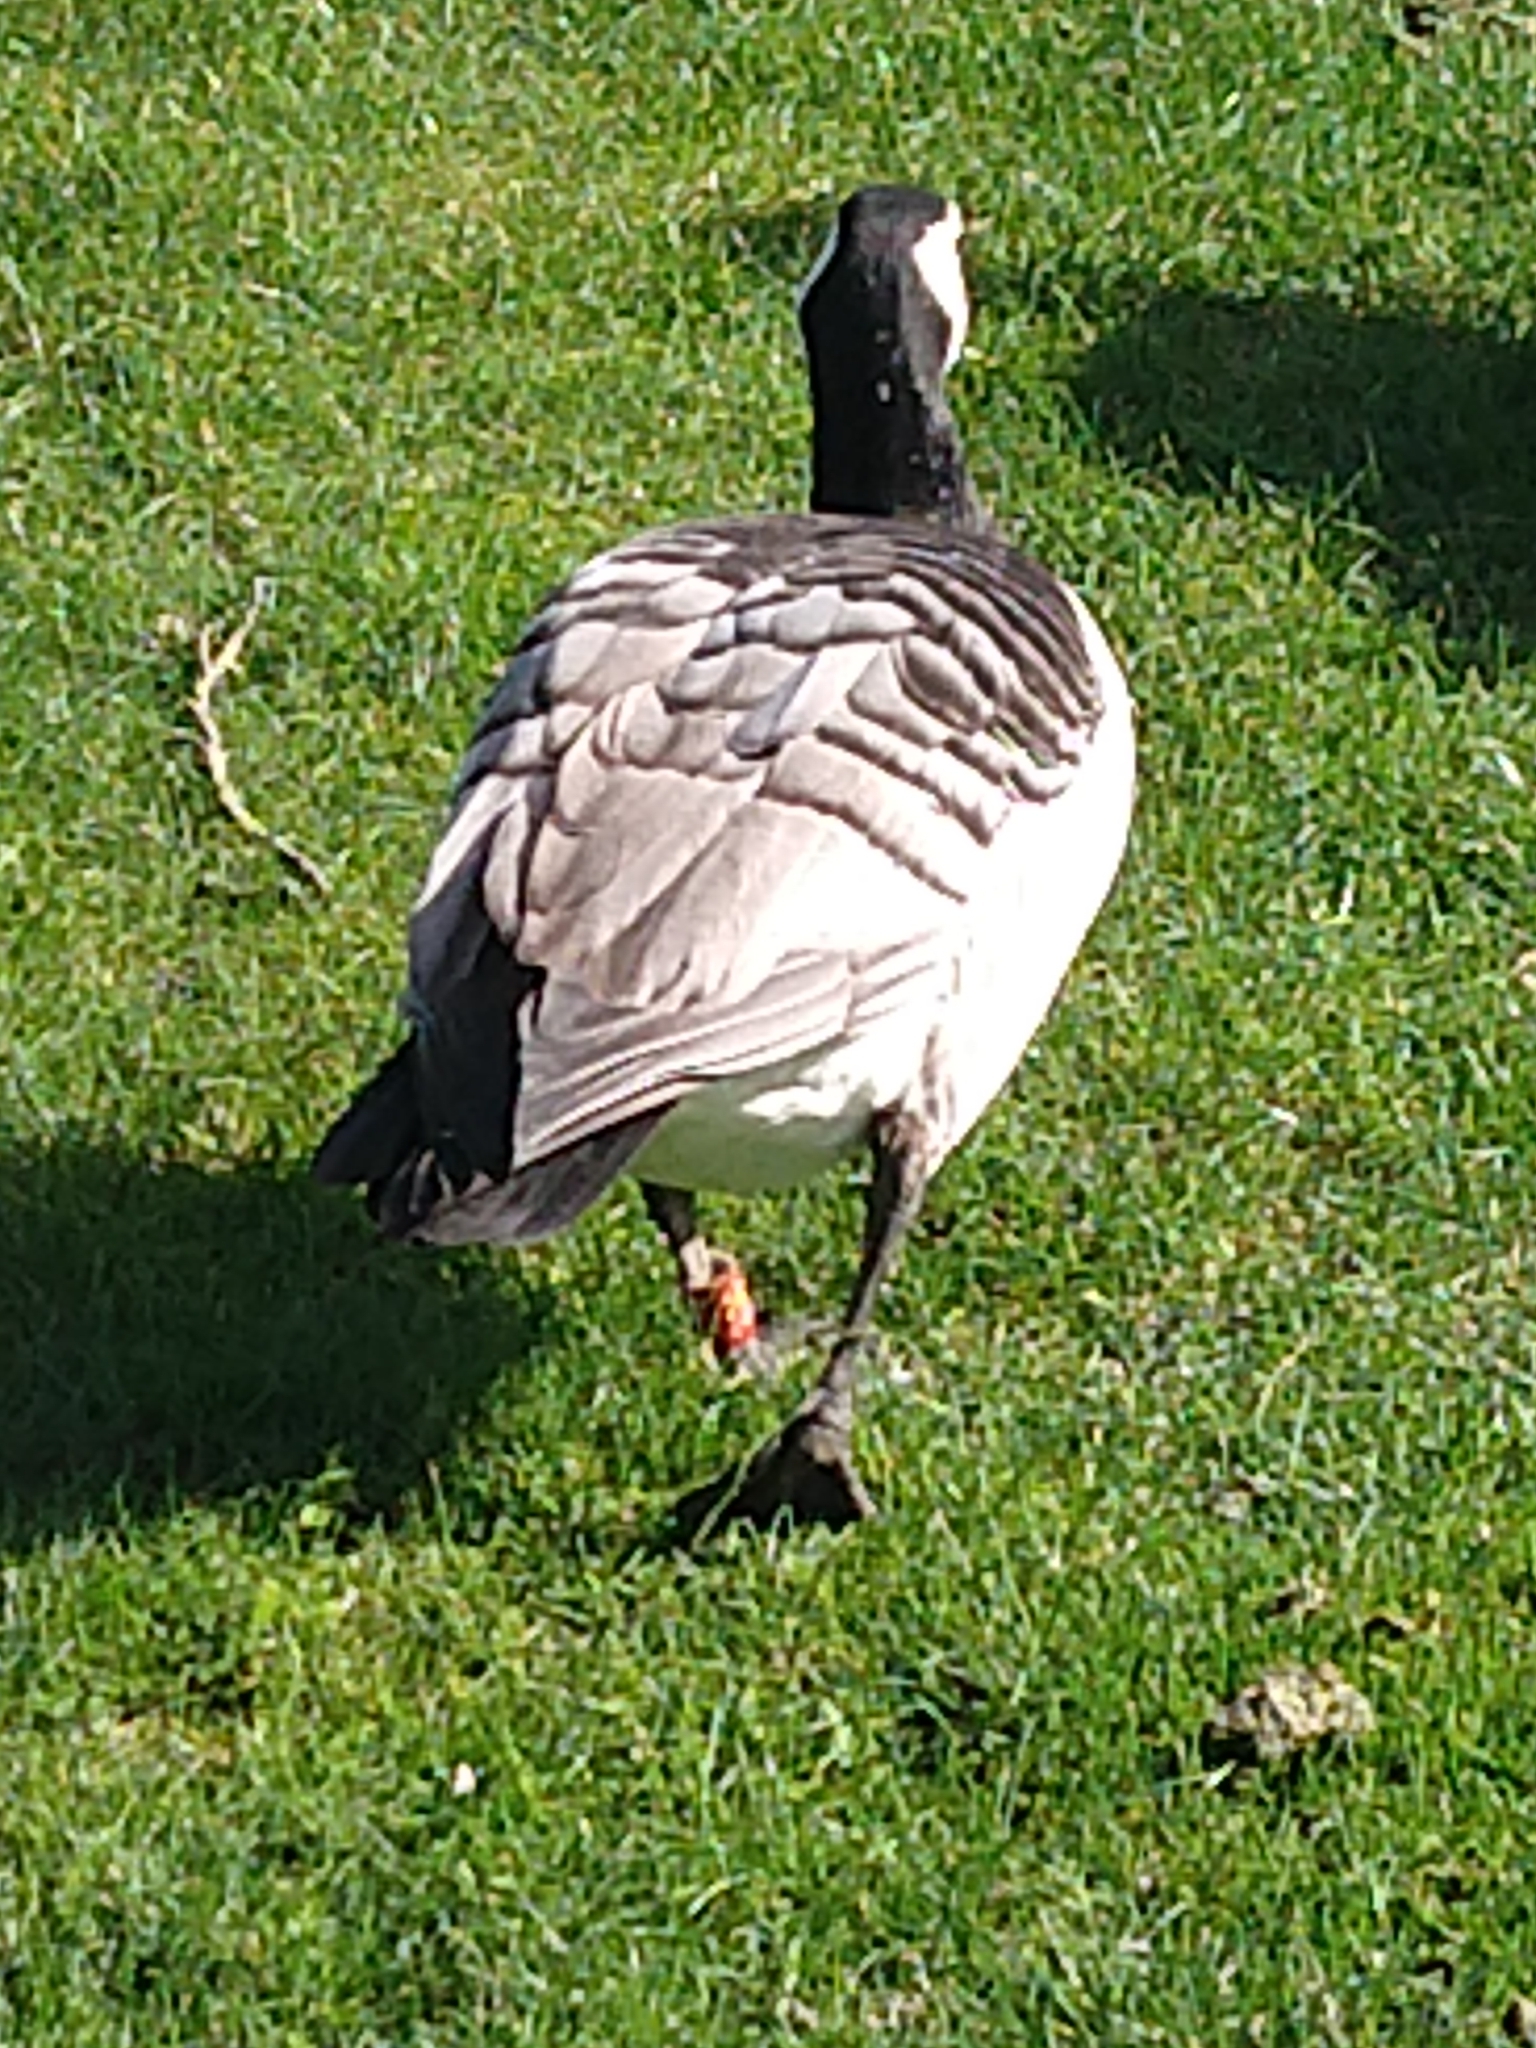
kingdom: Animalia
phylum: Chordata
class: Aves
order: Anseriformes
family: Anatidae
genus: Branta
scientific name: Branta leucopsis
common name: Barnacle goose
